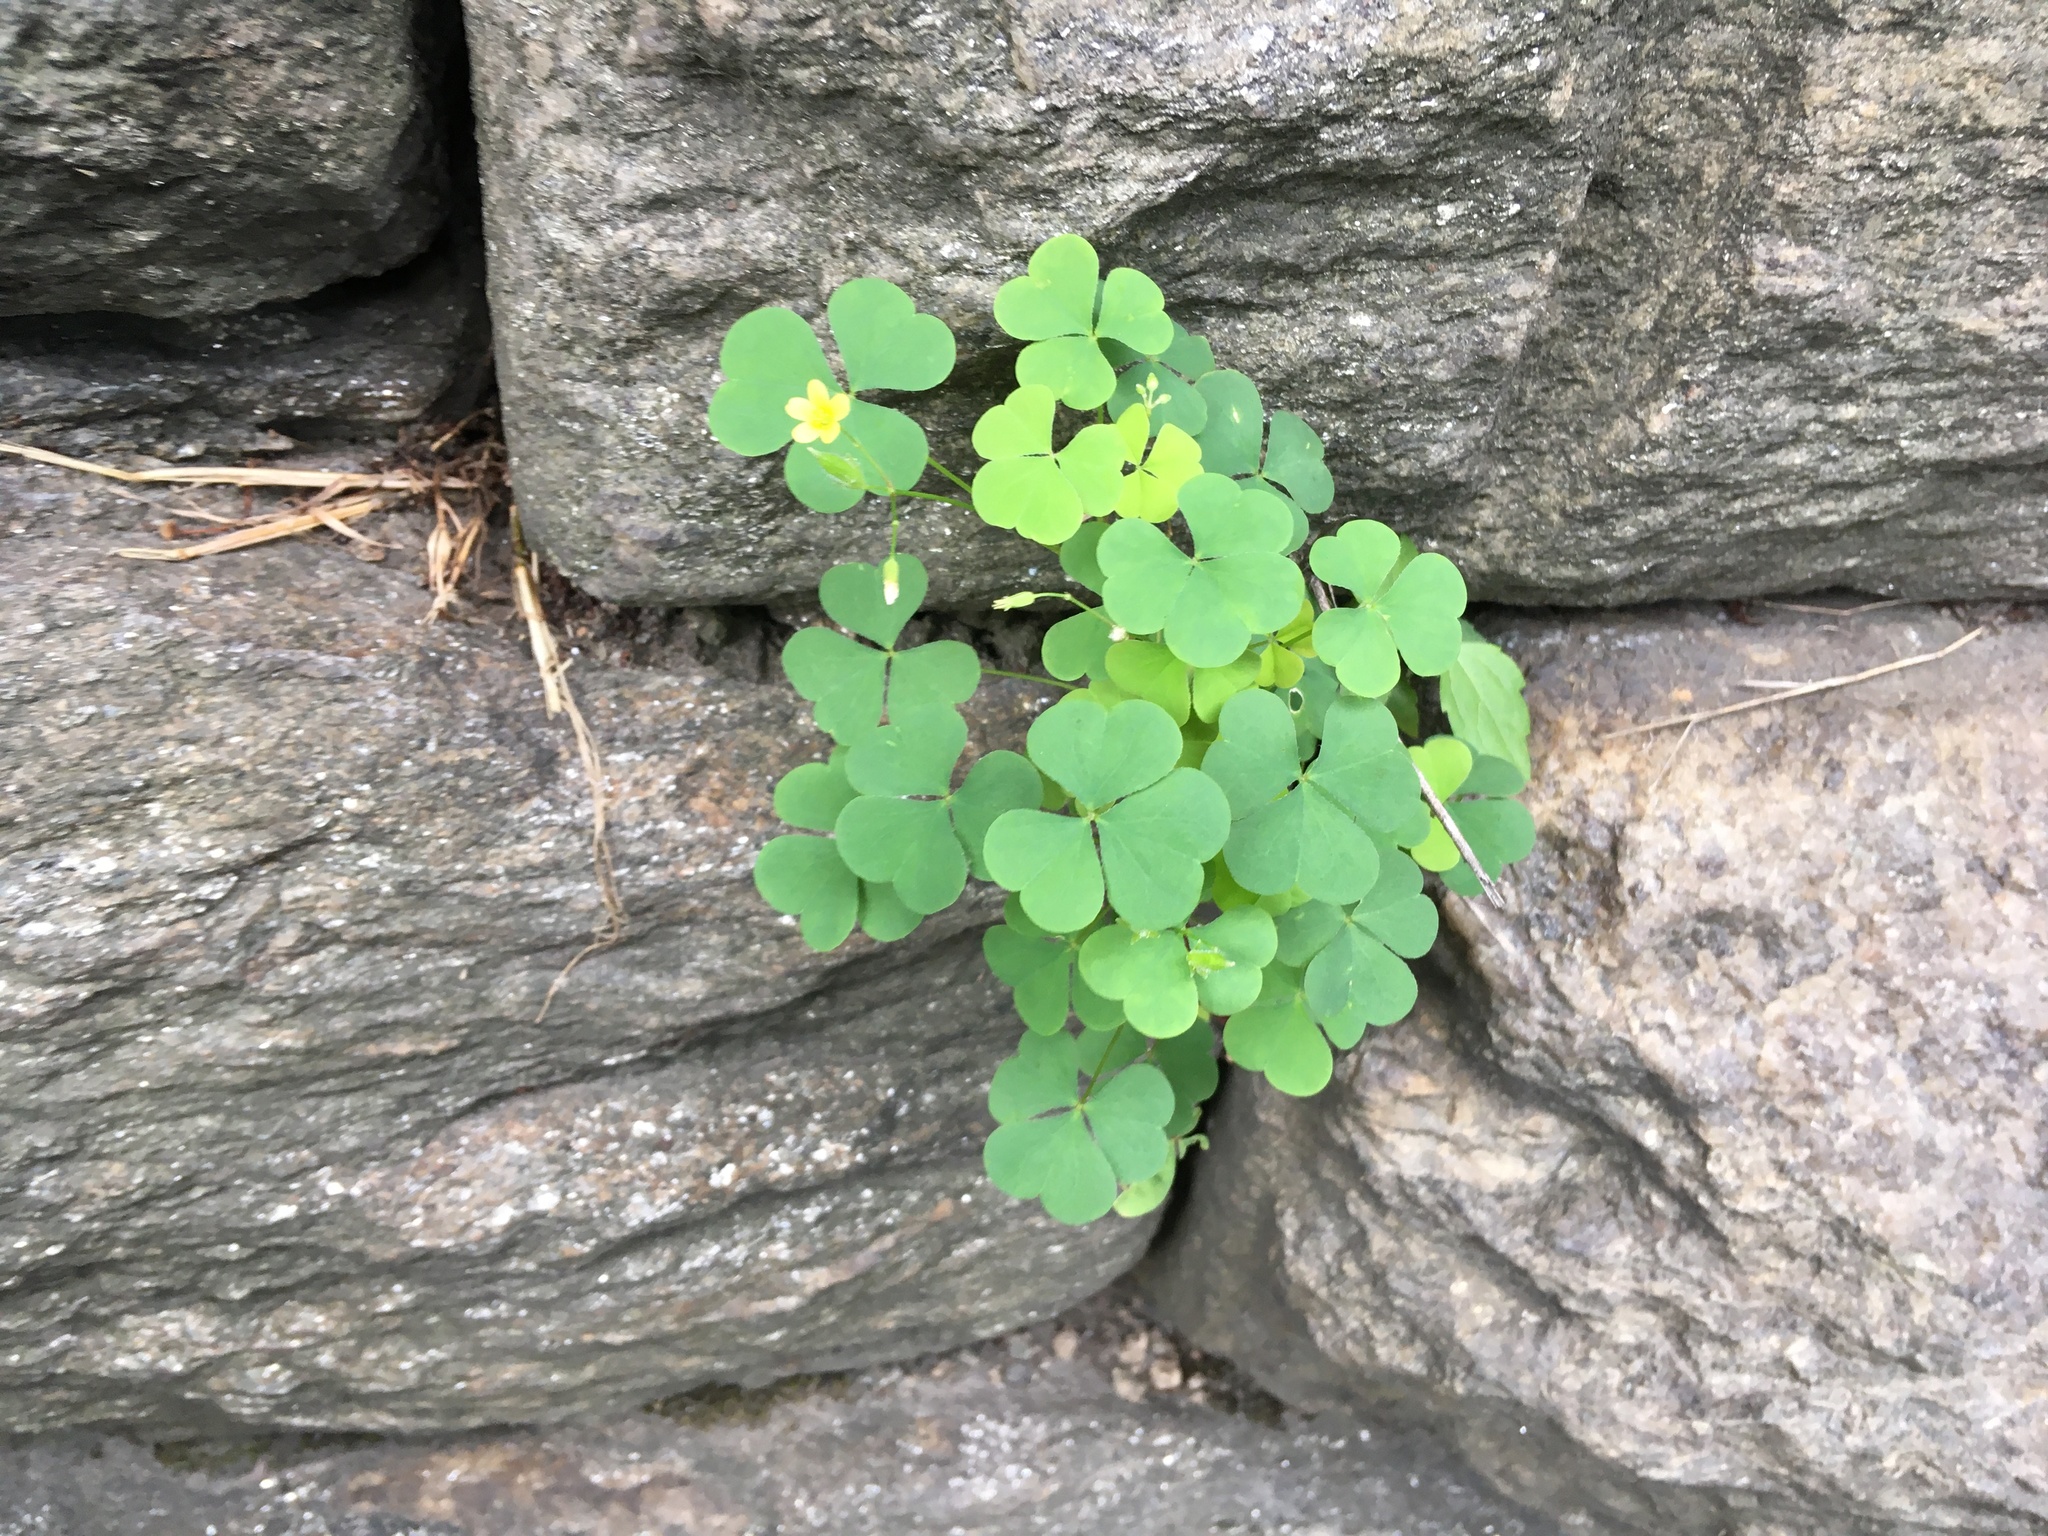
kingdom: Plantae
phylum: Tracheophyta
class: Magnoliopsida
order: Oxalidales
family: Oxalidaceae
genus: Oxalis
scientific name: Oxalis corniculata
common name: Procumbent yellow-sorrel
